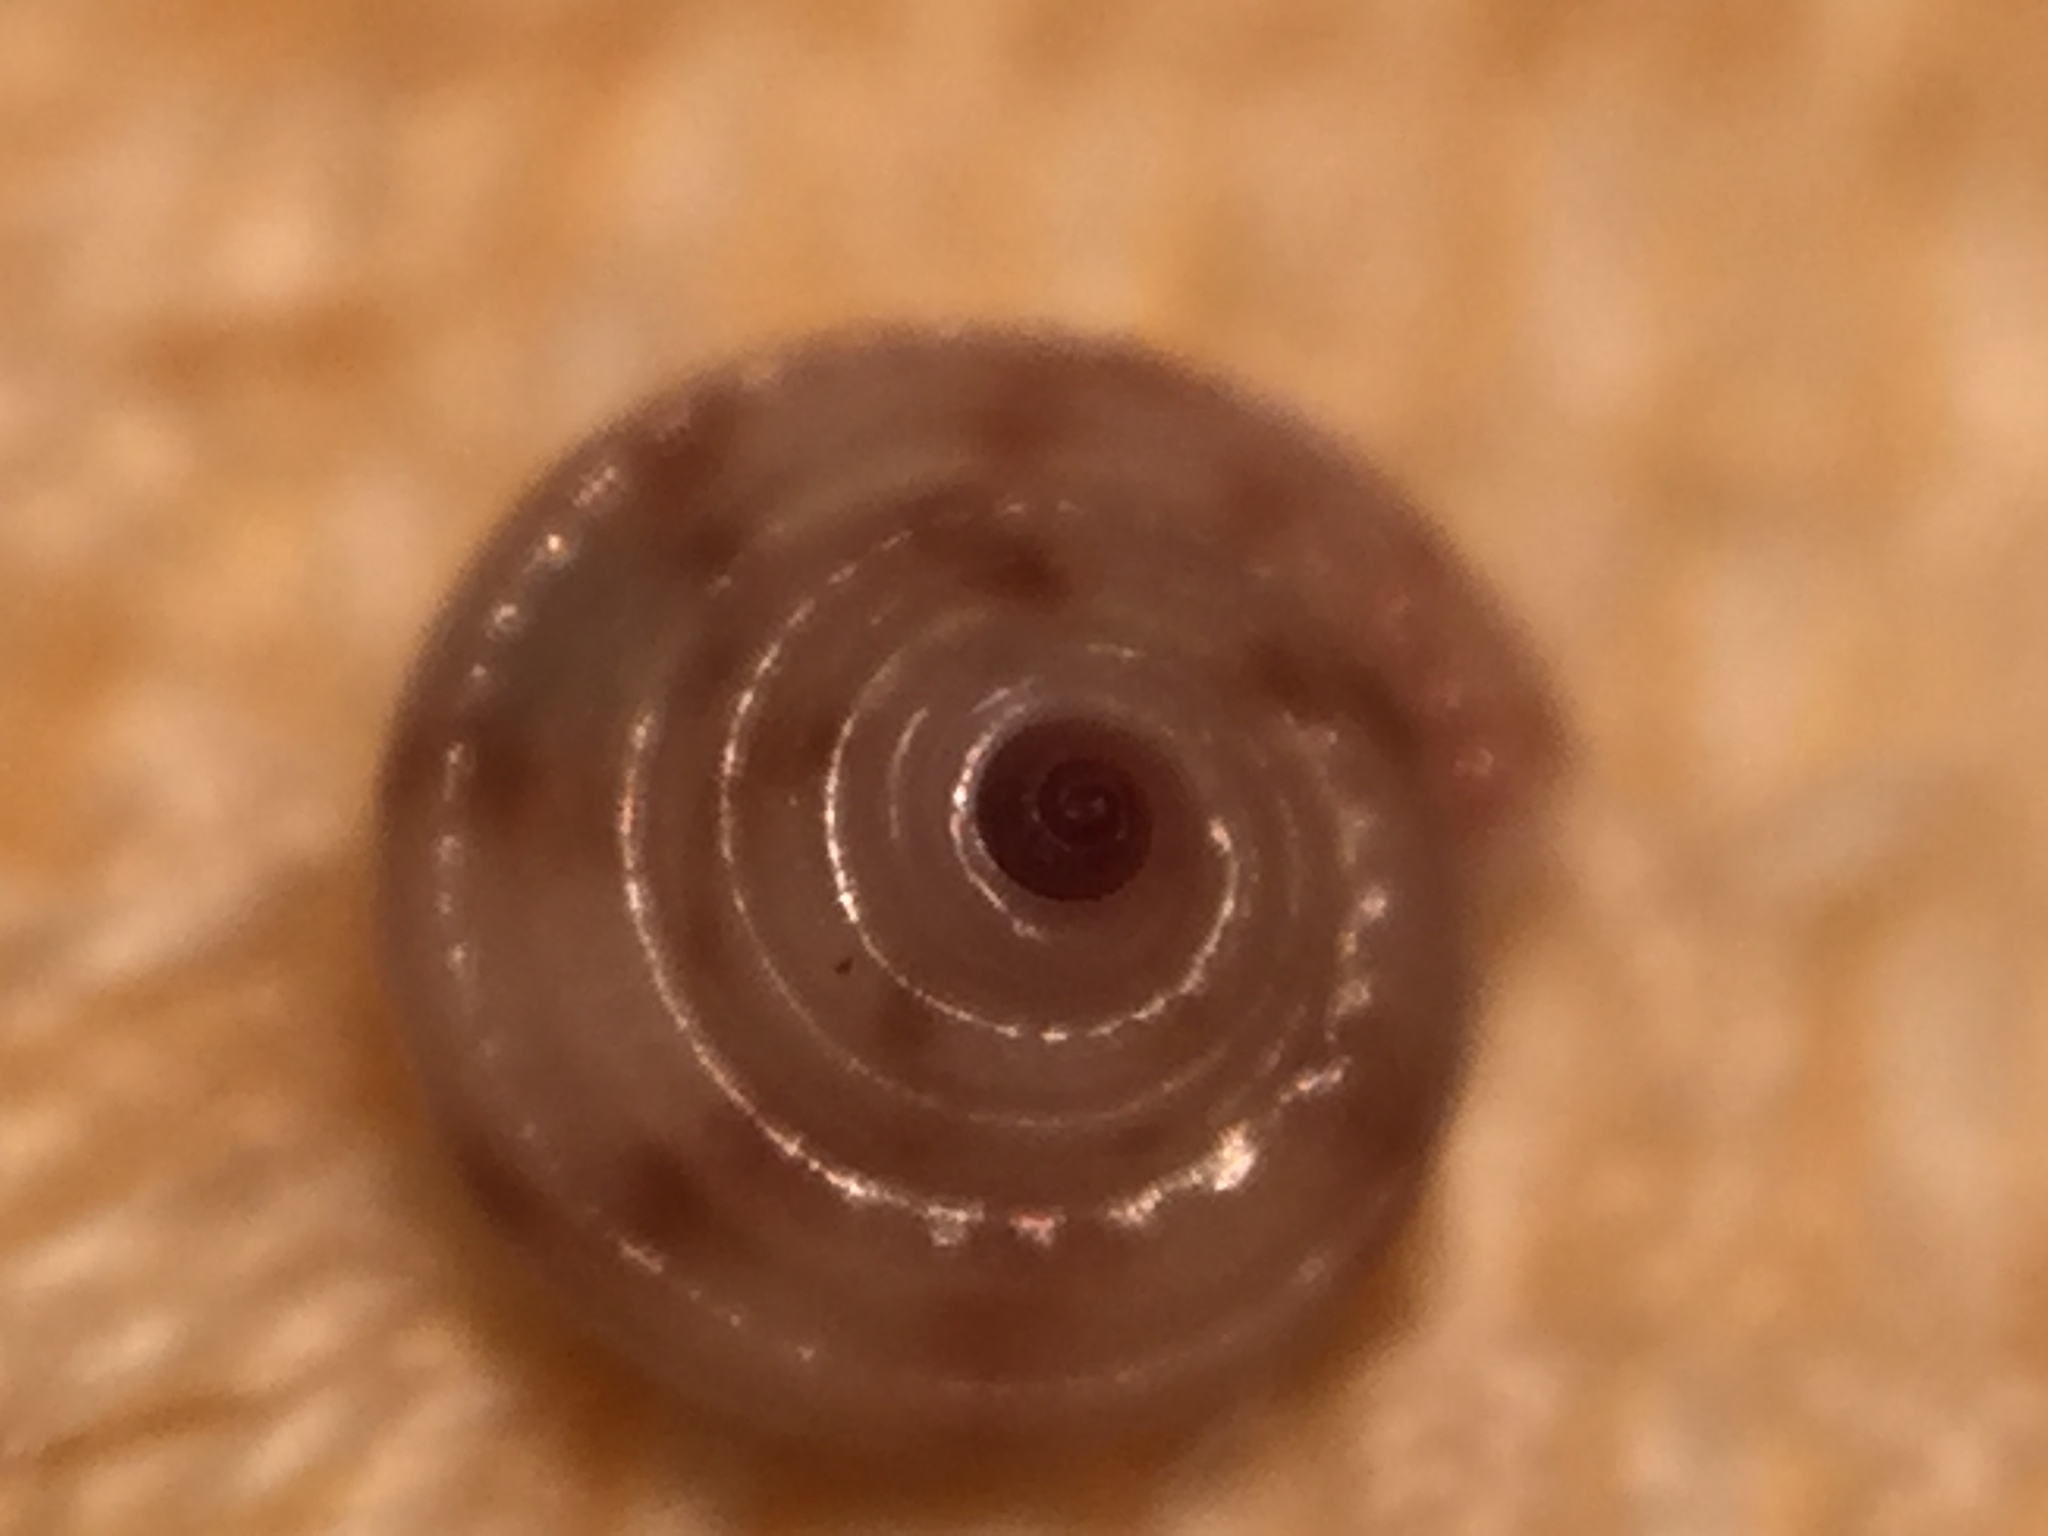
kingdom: Animalia
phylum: Mollusca
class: Gastropoda
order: Trochida
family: Trochidae
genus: Antisolarium
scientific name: Antisolarium egenum
